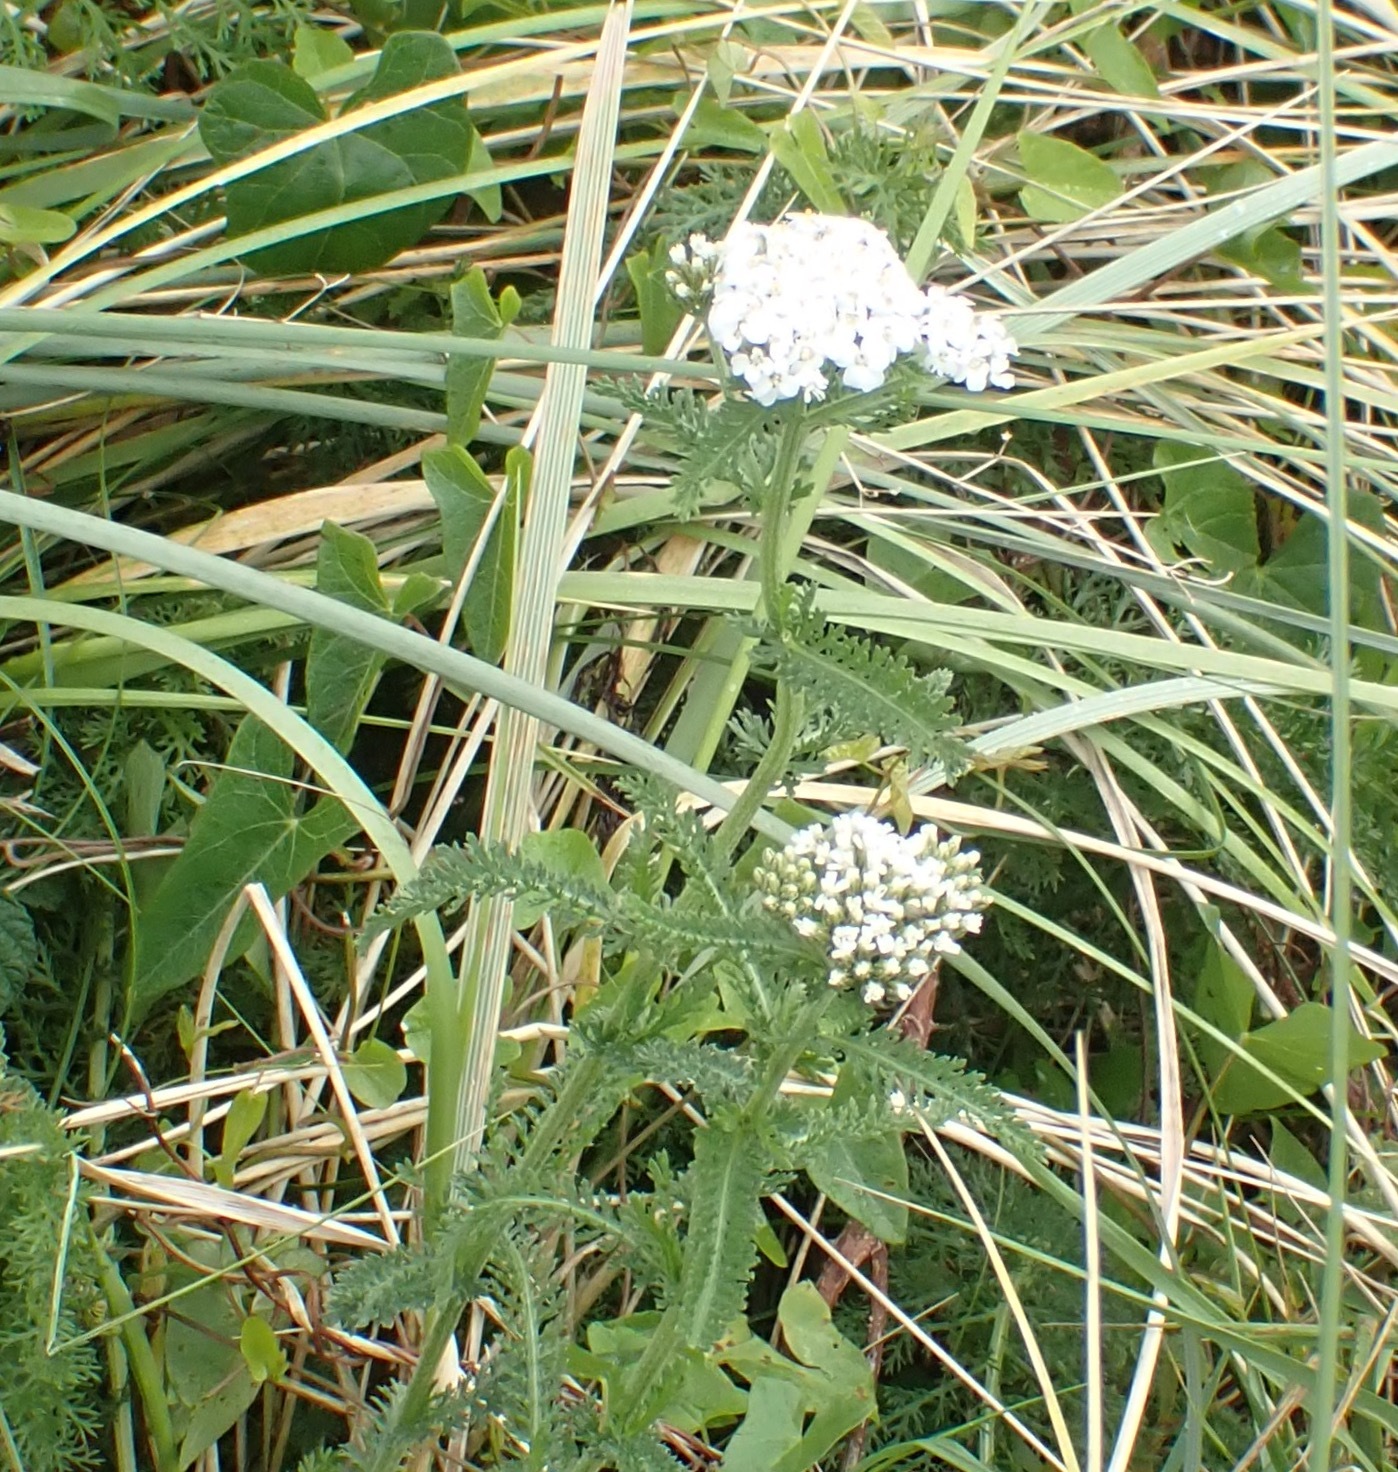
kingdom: Plantae
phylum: Tracheophyta
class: Magnoliopsida
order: Asterales
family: Asteraceae
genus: Achillea
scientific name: Achillea millefolium
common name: Yarrow
